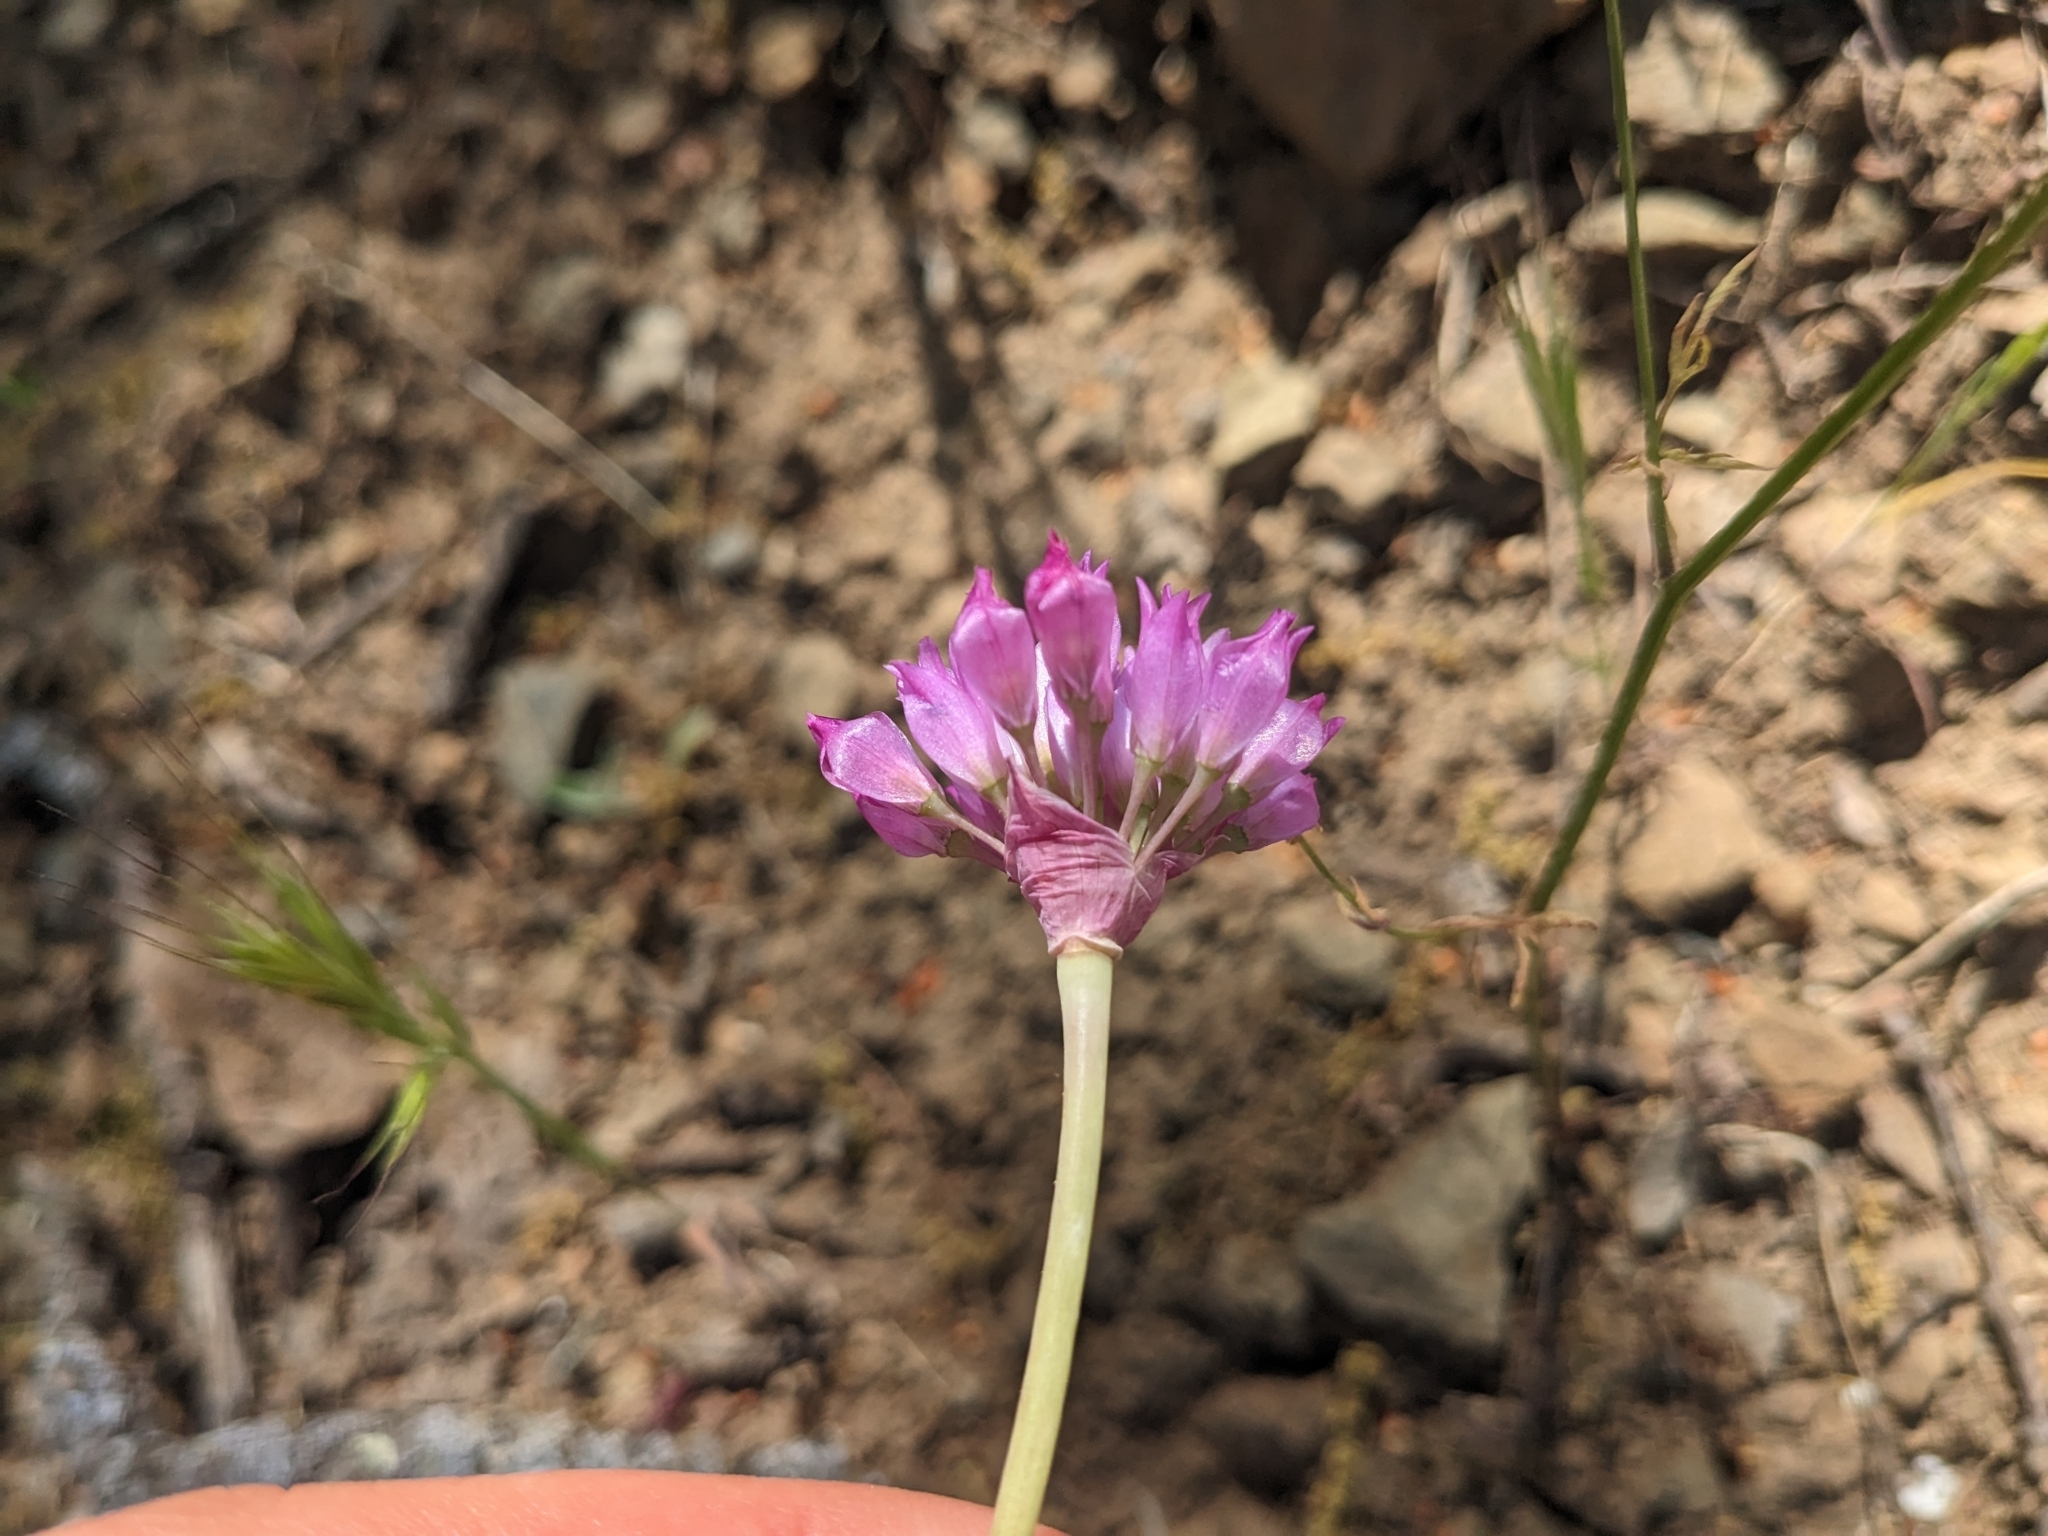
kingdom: Plantae
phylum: Tracheophyta
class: Liliopsida
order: Asparagales
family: Amaryllidaceae
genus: Allium
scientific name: Allium serra
